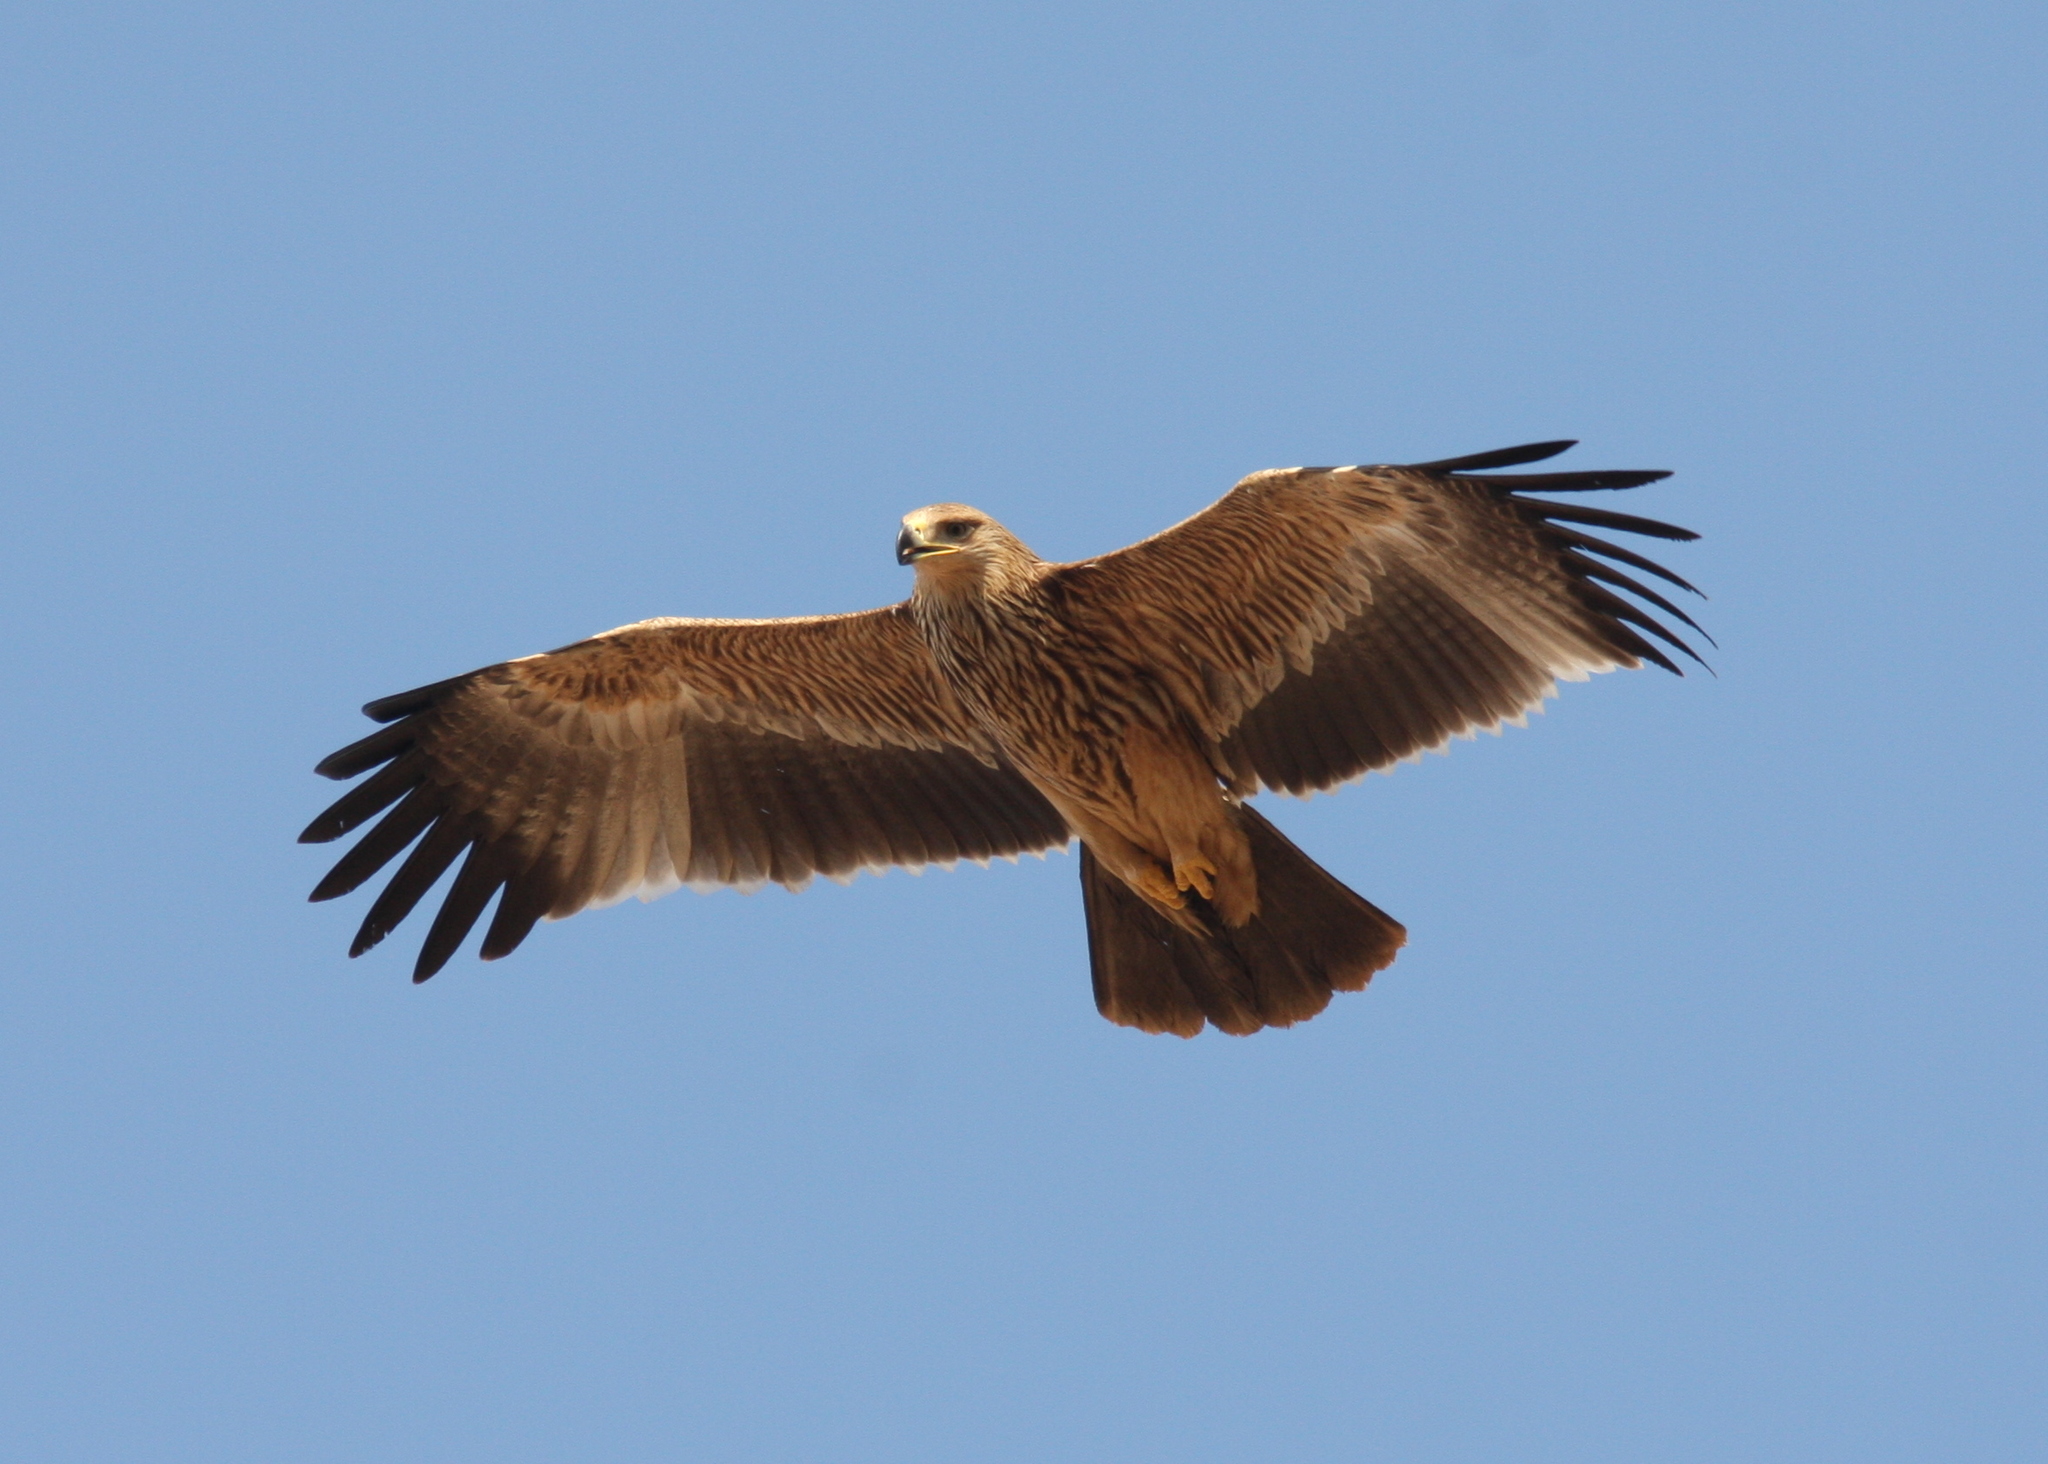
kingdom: Animalia
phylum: Chordata
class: Aves
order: Accipitriformes
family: Accipitridae
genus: Aquila
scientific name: Aquila heliaca
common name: Eastern imperial eagle
